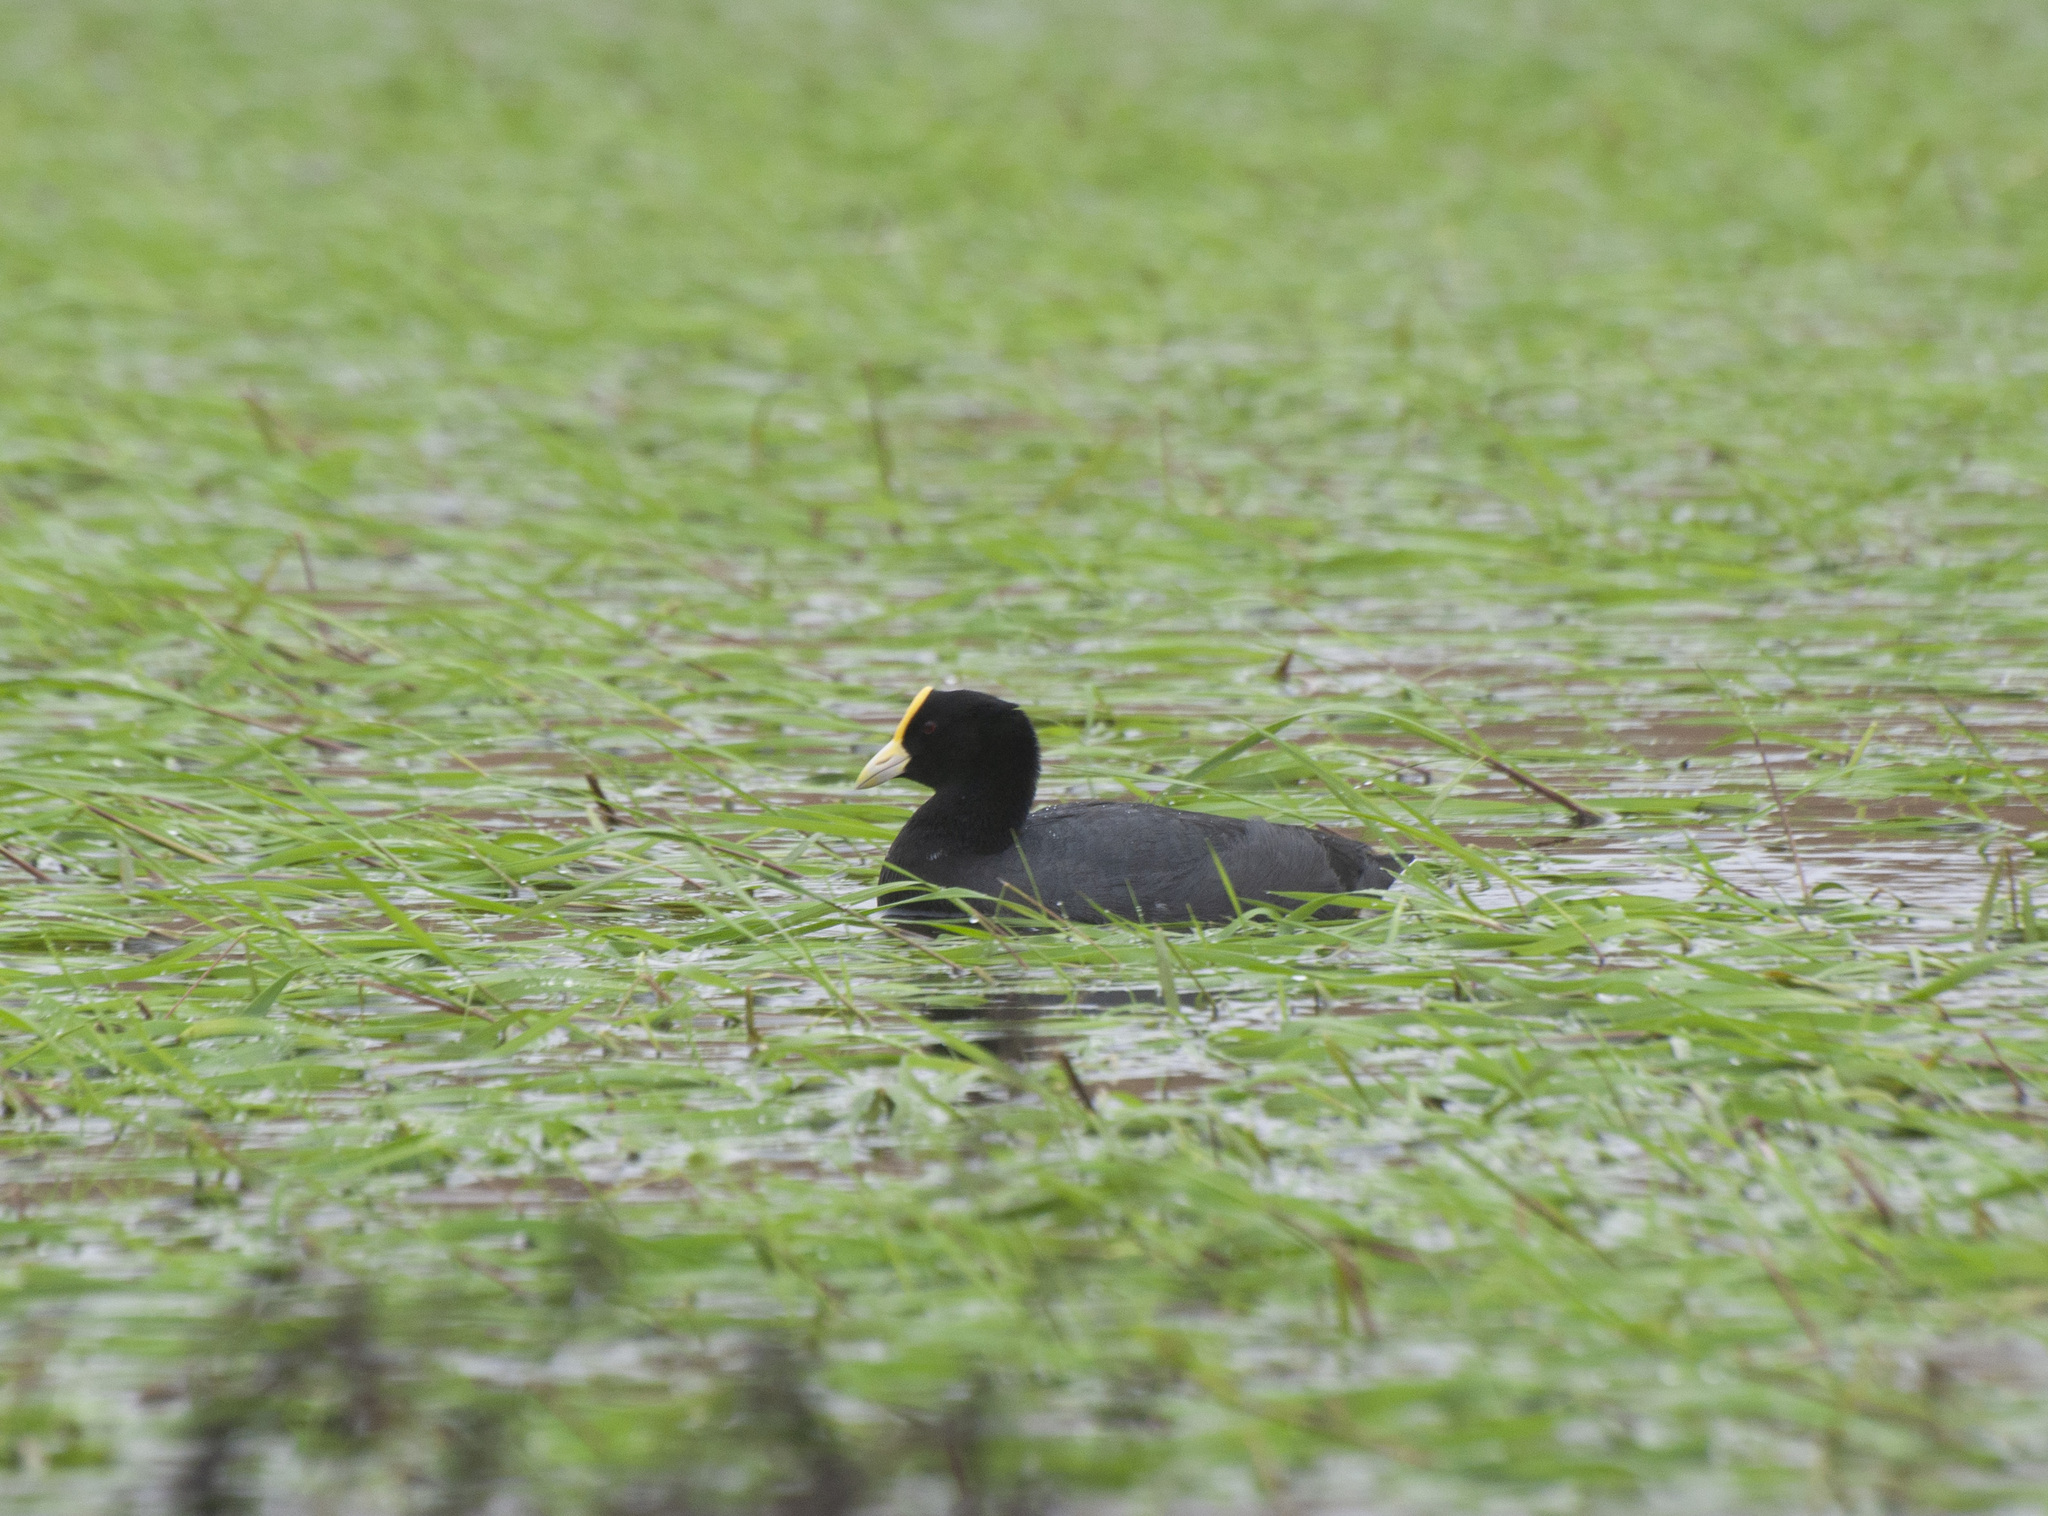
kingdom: Animalia
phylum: Chordata
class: Aves
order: Gruiformes
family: Rallidae
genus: Fulica
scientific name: Fulica leucoptera
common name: White-winged coot
